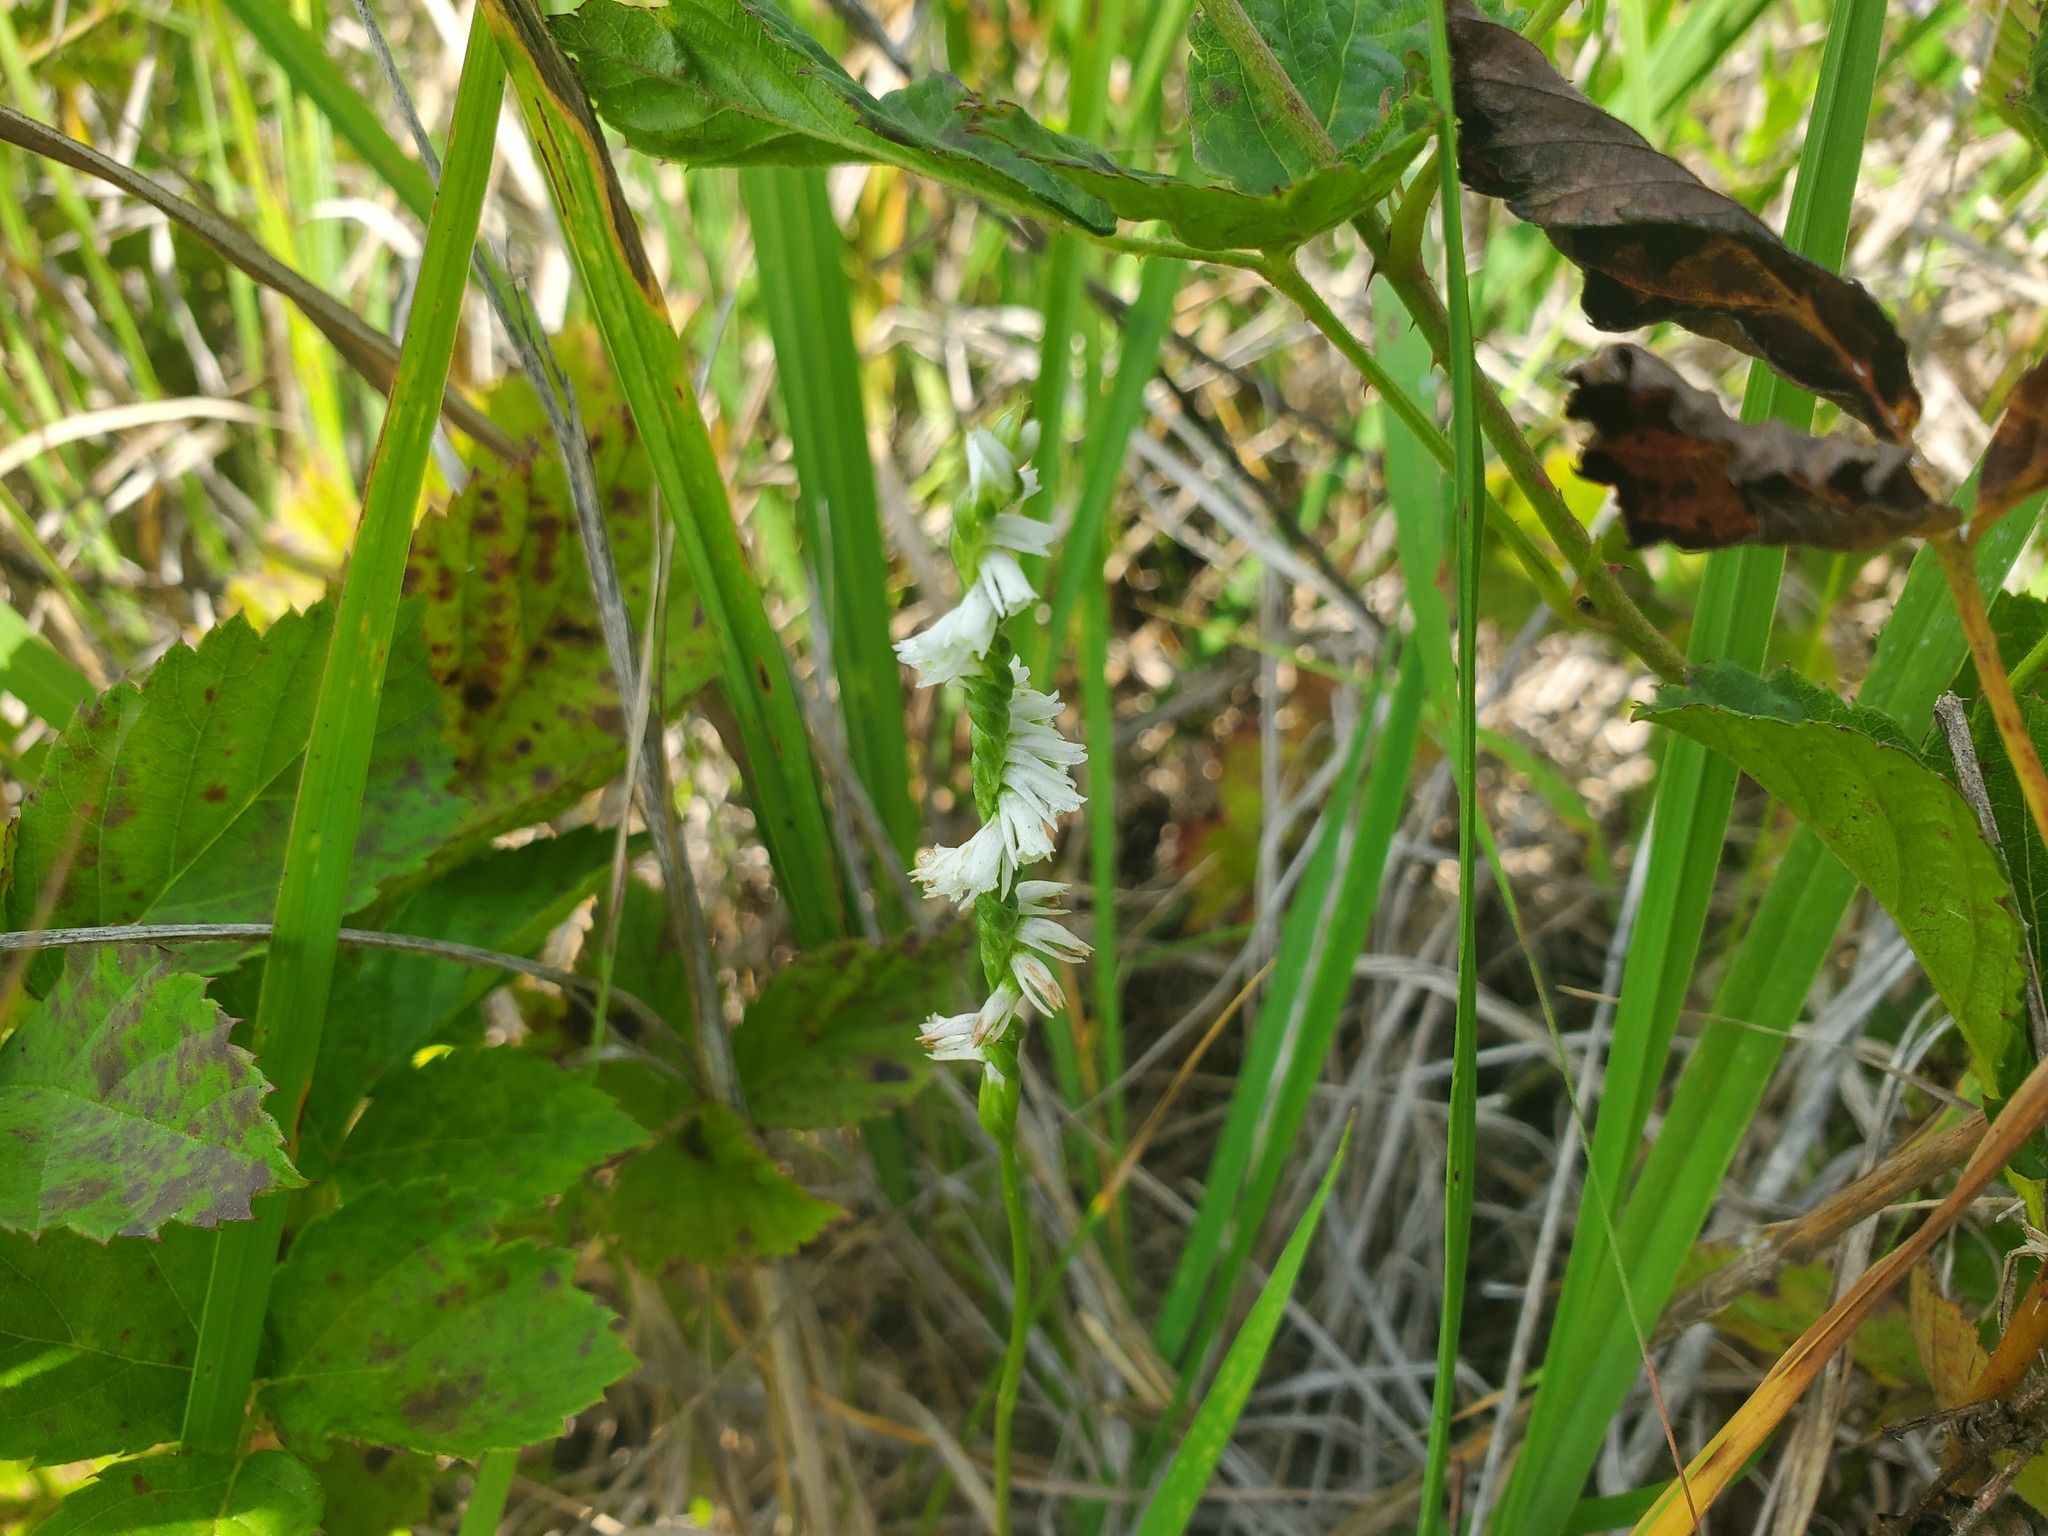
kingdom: Plantae
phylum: Tracheophyta
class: Liliopsida
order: Asparagales
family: Orchidaceae
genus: Spiranthes
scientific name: Spiranthes lacera
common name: Northern slender ladies'-tresses
